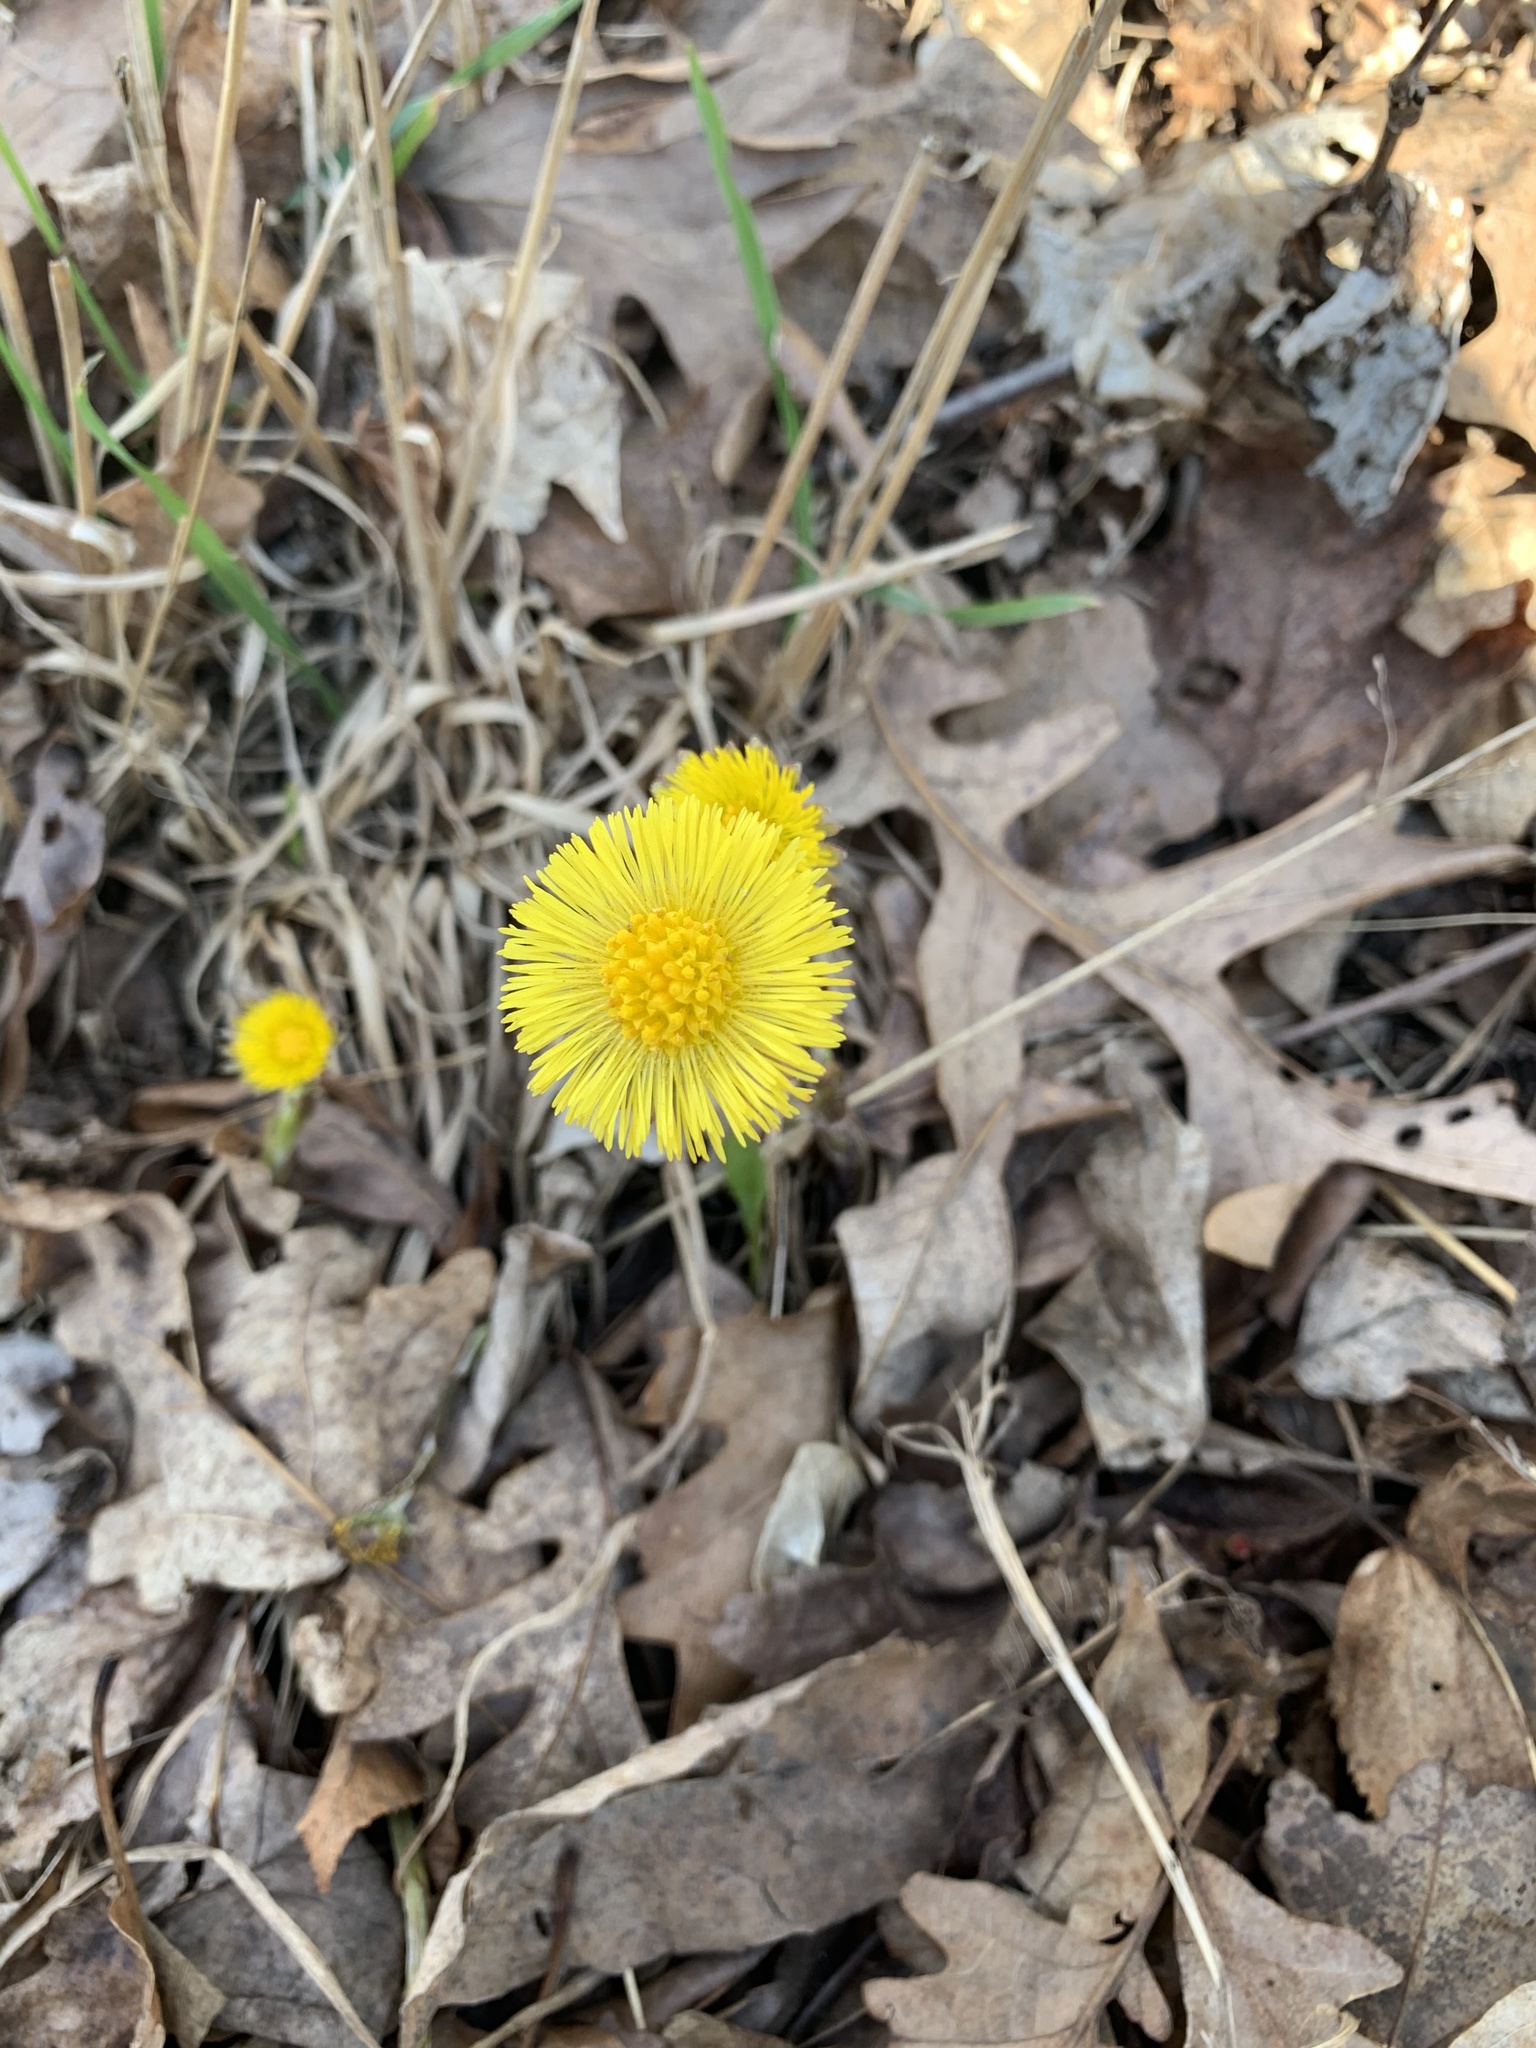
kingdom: Plantae
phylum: Tracheophyta
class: Magnoliopsida
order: Asterales
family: Asteraceae
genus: Tussilago
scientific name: Tussilago farfara
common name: Coltsfoot
